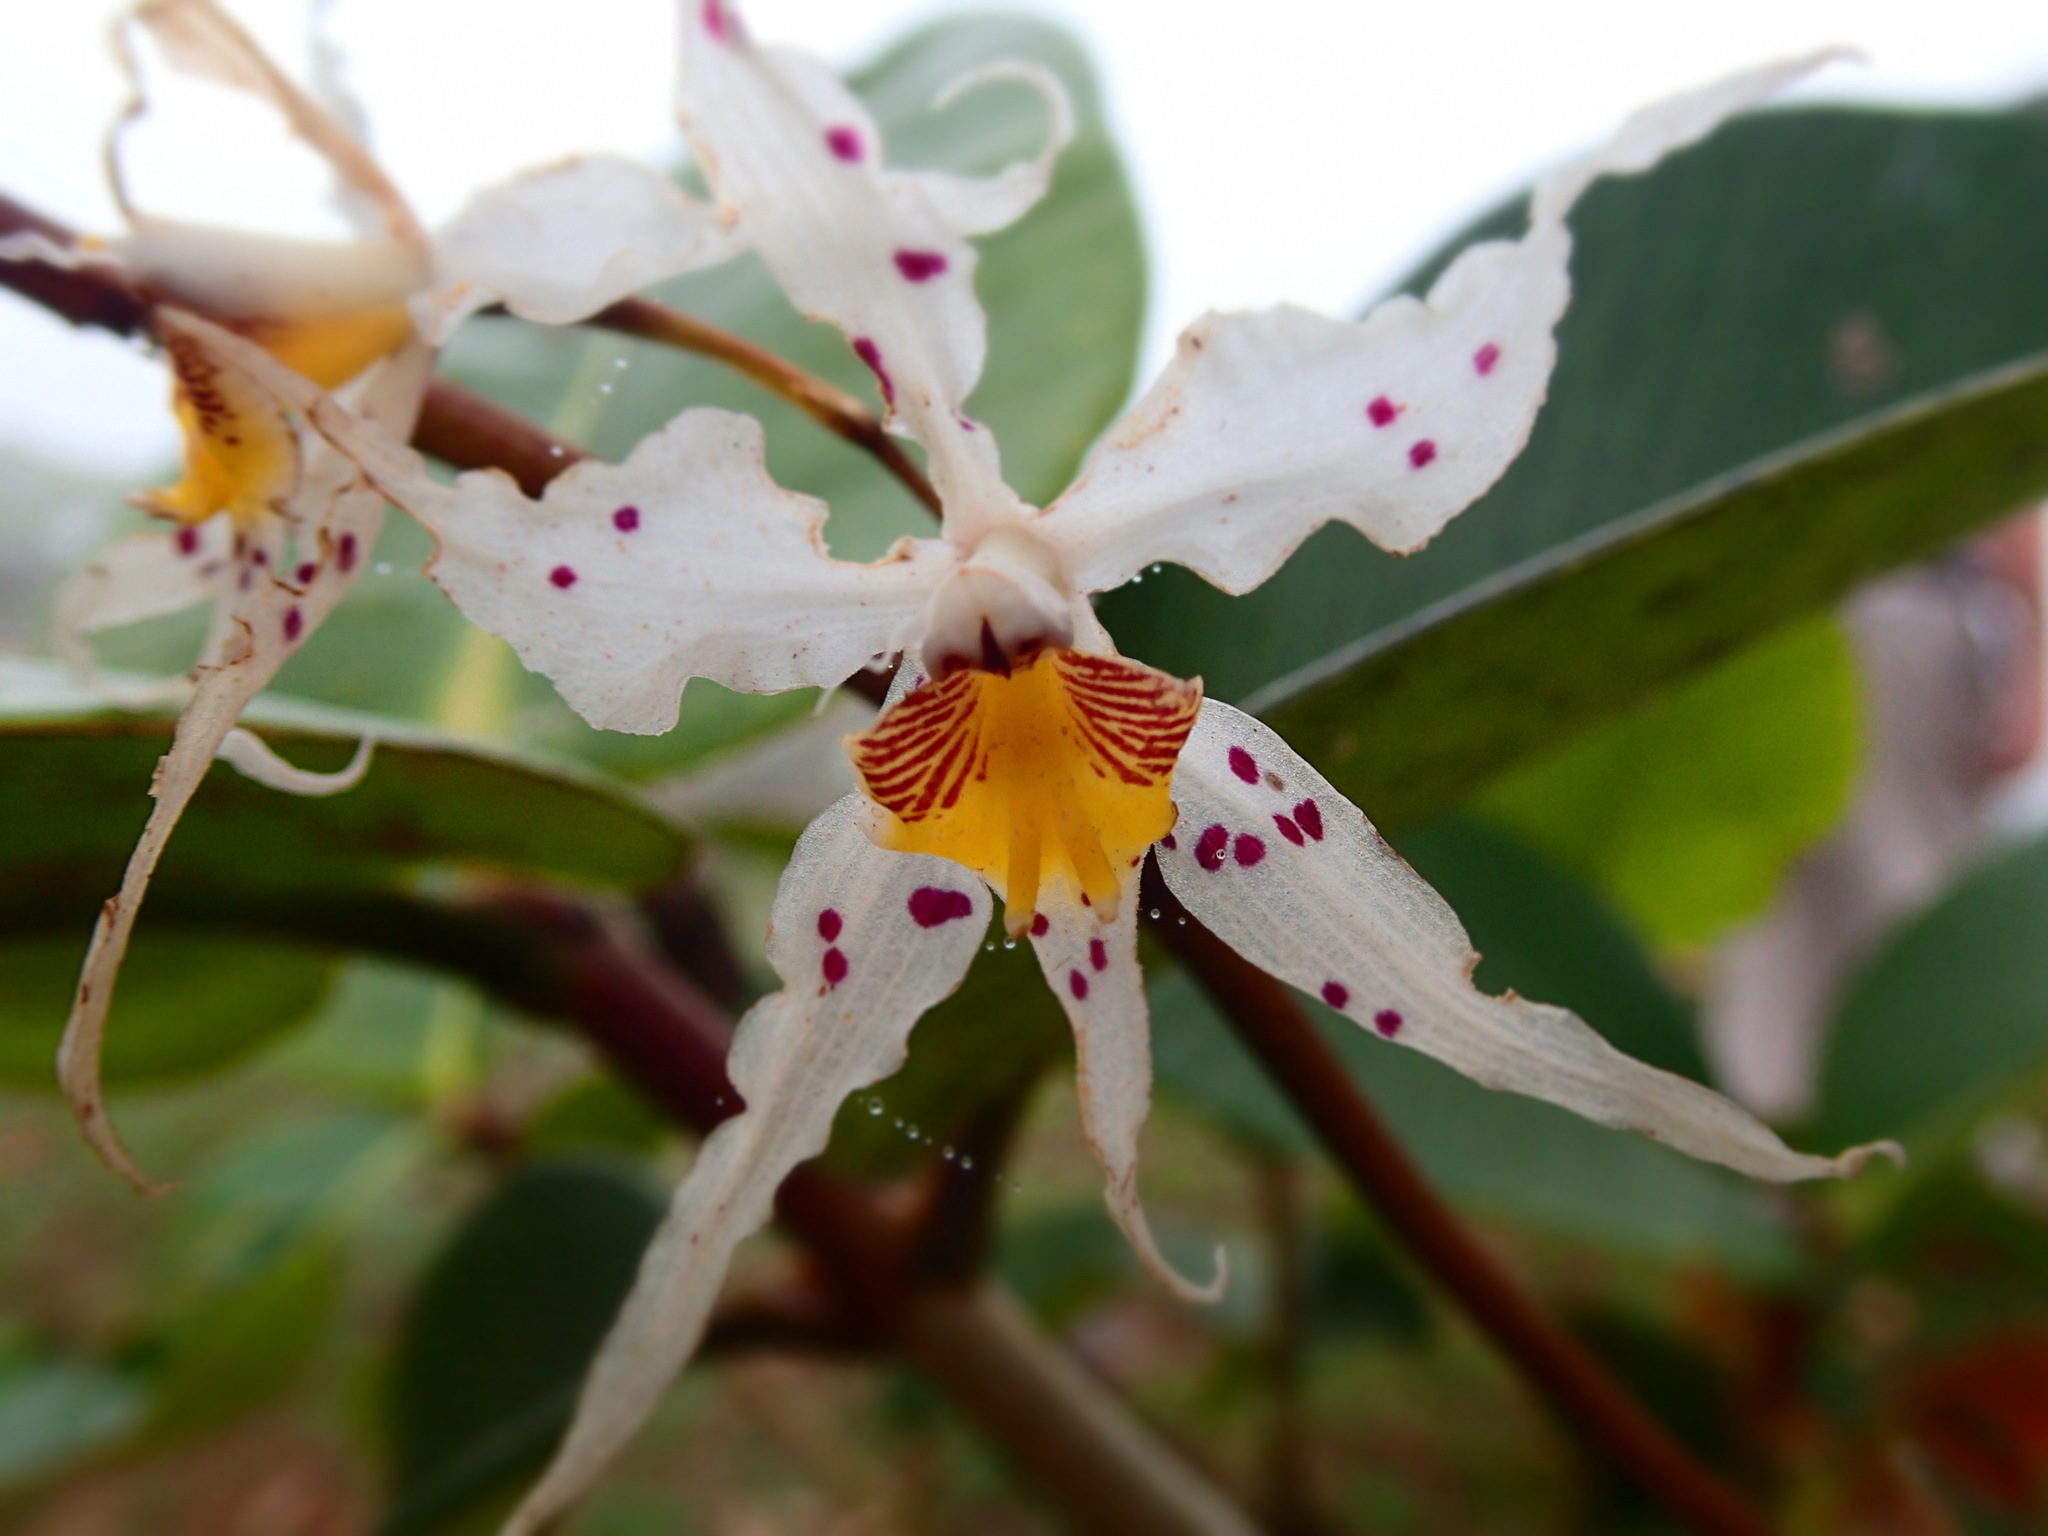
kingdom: Plantae
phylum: Tracheophyta
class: Liliopsida
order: Asparagales
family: Orchidaceae
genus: Oncidium
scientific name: Oncidium cirrhosum
